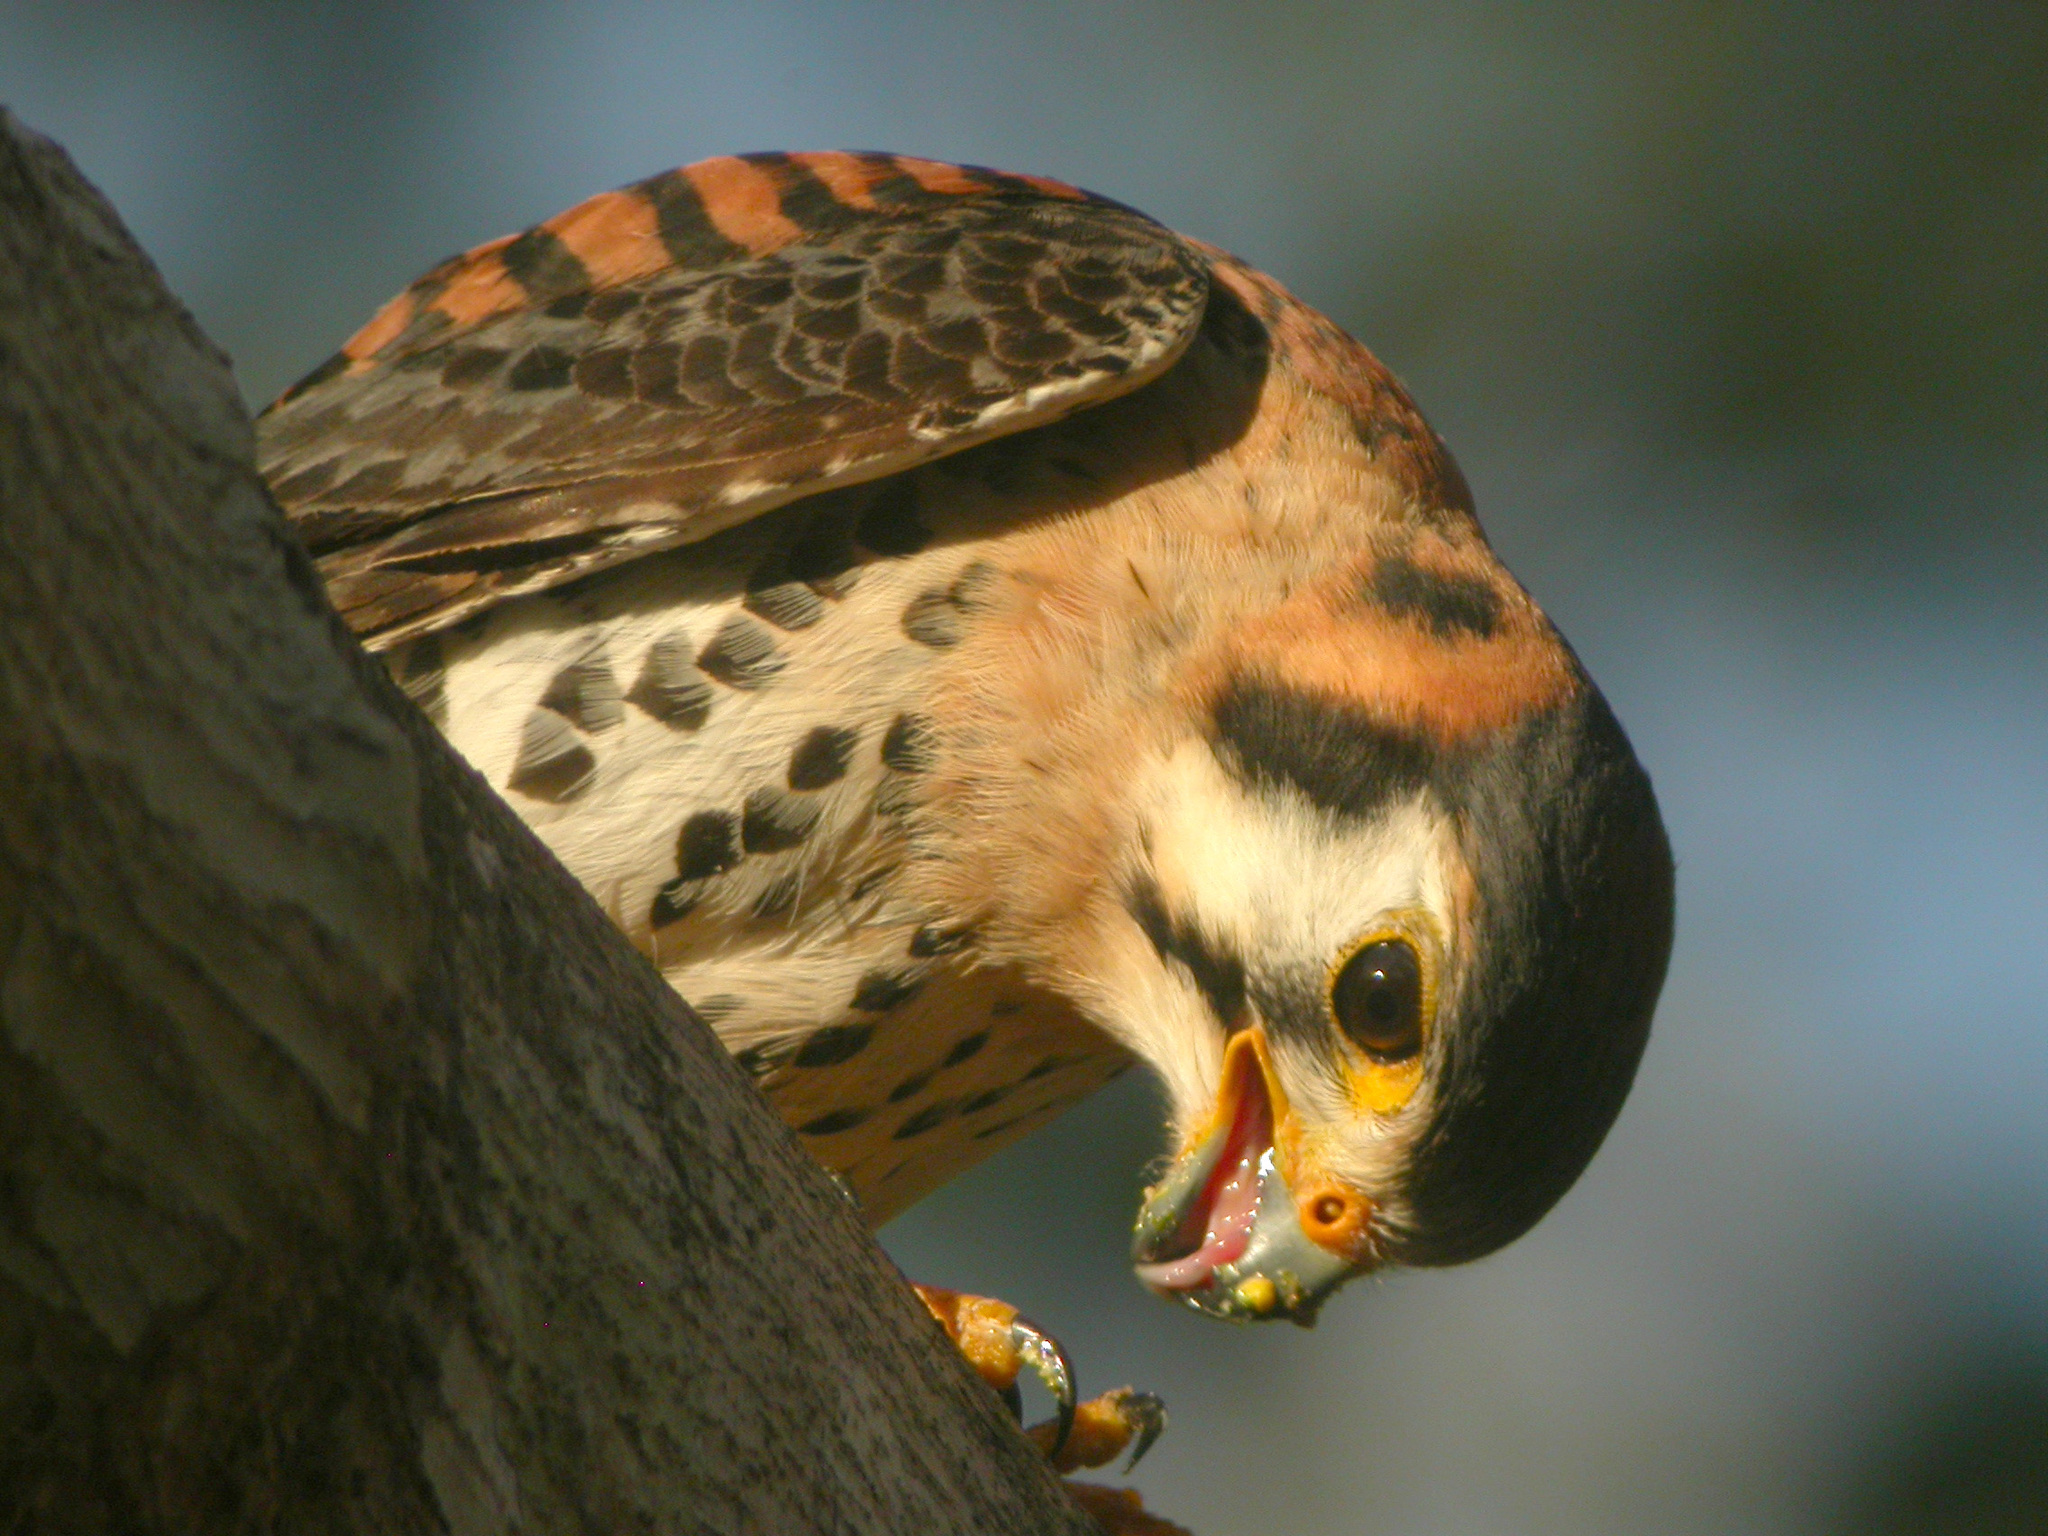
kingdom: Animalia
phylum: Chordata
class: Aves
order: Falconiformes
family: Falconidae
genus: Falco
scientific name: Falco sparverius
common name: American kestrel
